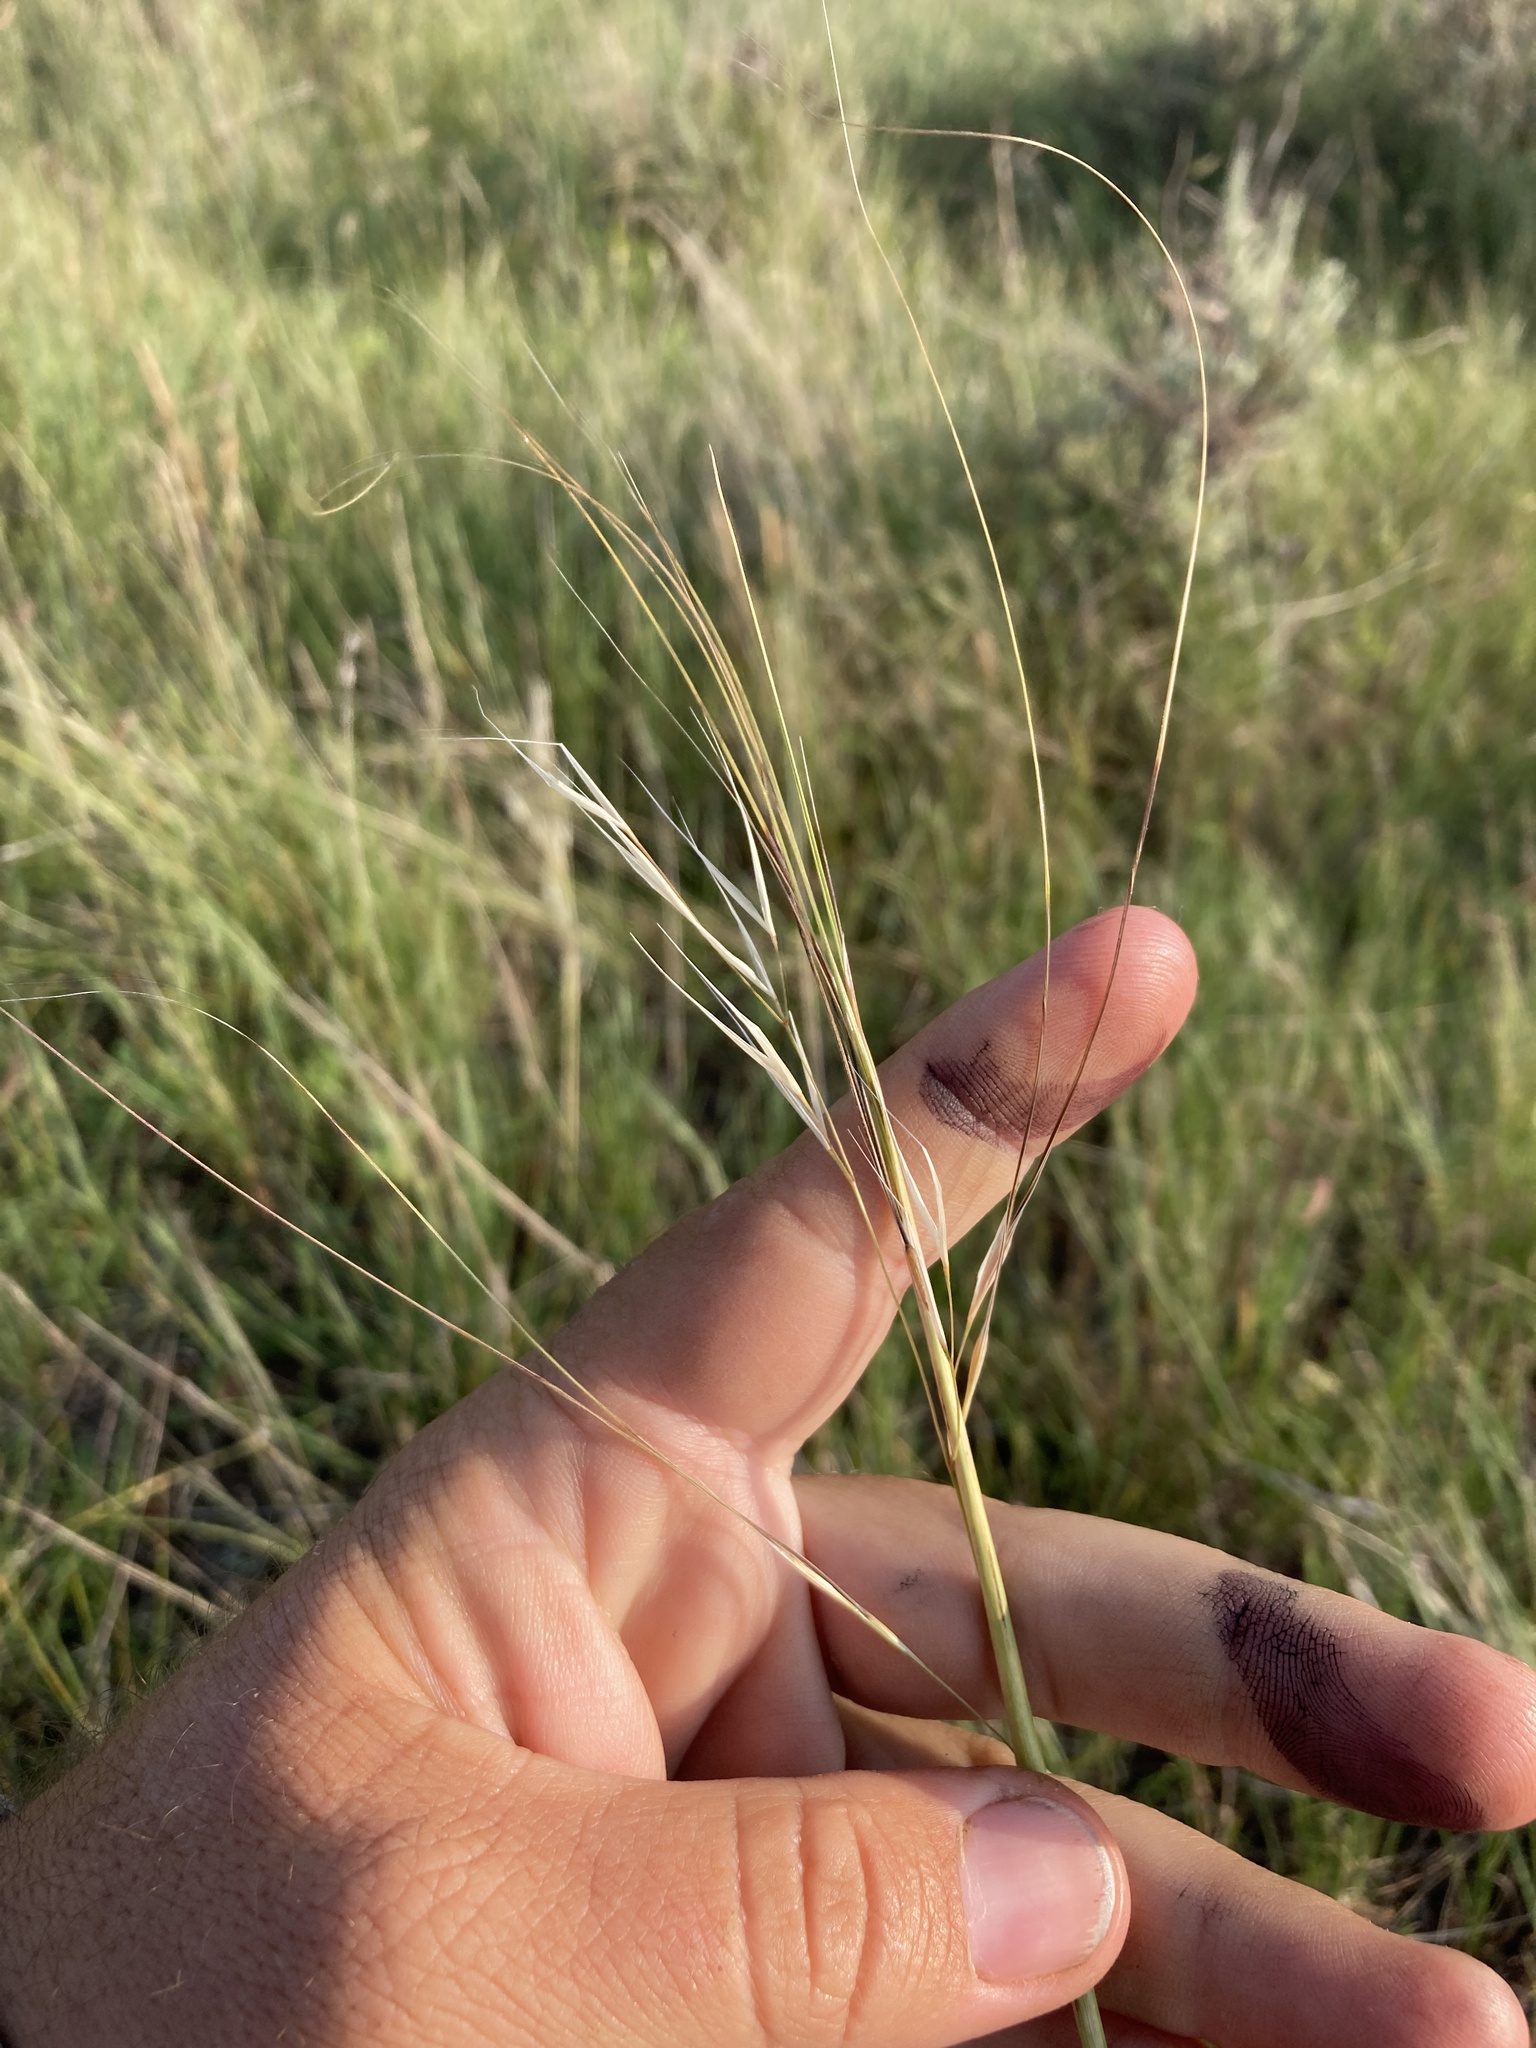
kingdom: Plantae
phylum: Tracheophyta
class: Liliopsida
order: Poales
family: Poaceae
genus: Hesperostipa
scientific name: Hesperostipa comata
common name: Needle-and-thread grass
